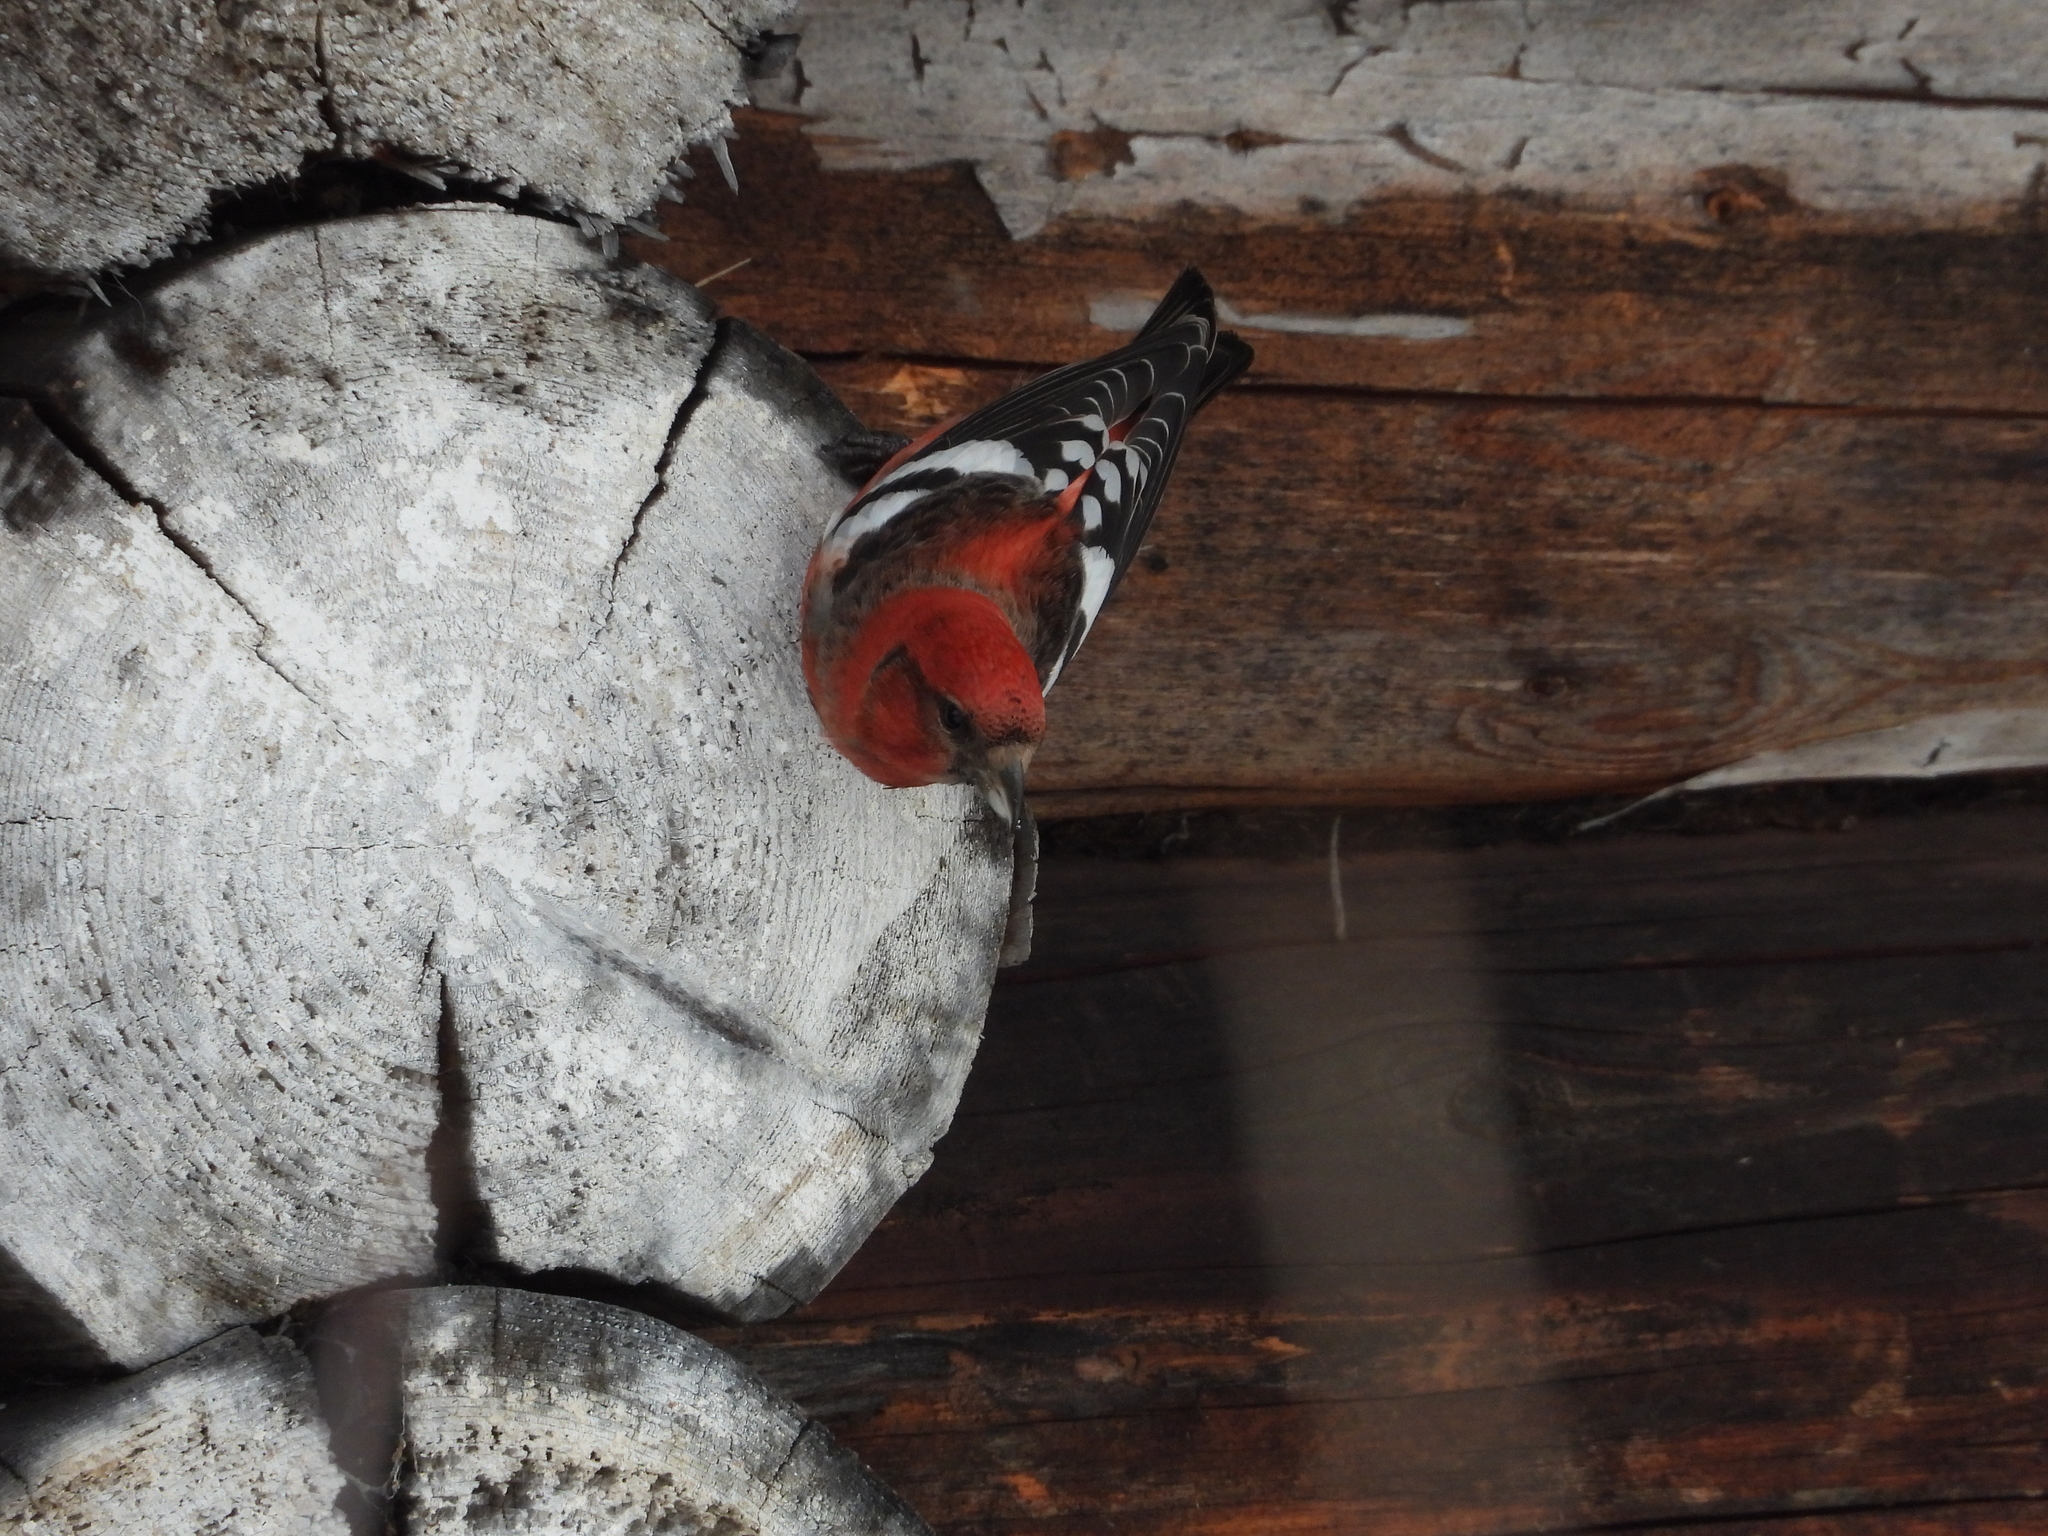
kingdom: Animalia
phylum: Chordata
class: Aves
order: Passeriformes
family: Fringillidae
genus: Loxia
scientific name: Loxia leucoptera
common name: Two-barred crossbill
